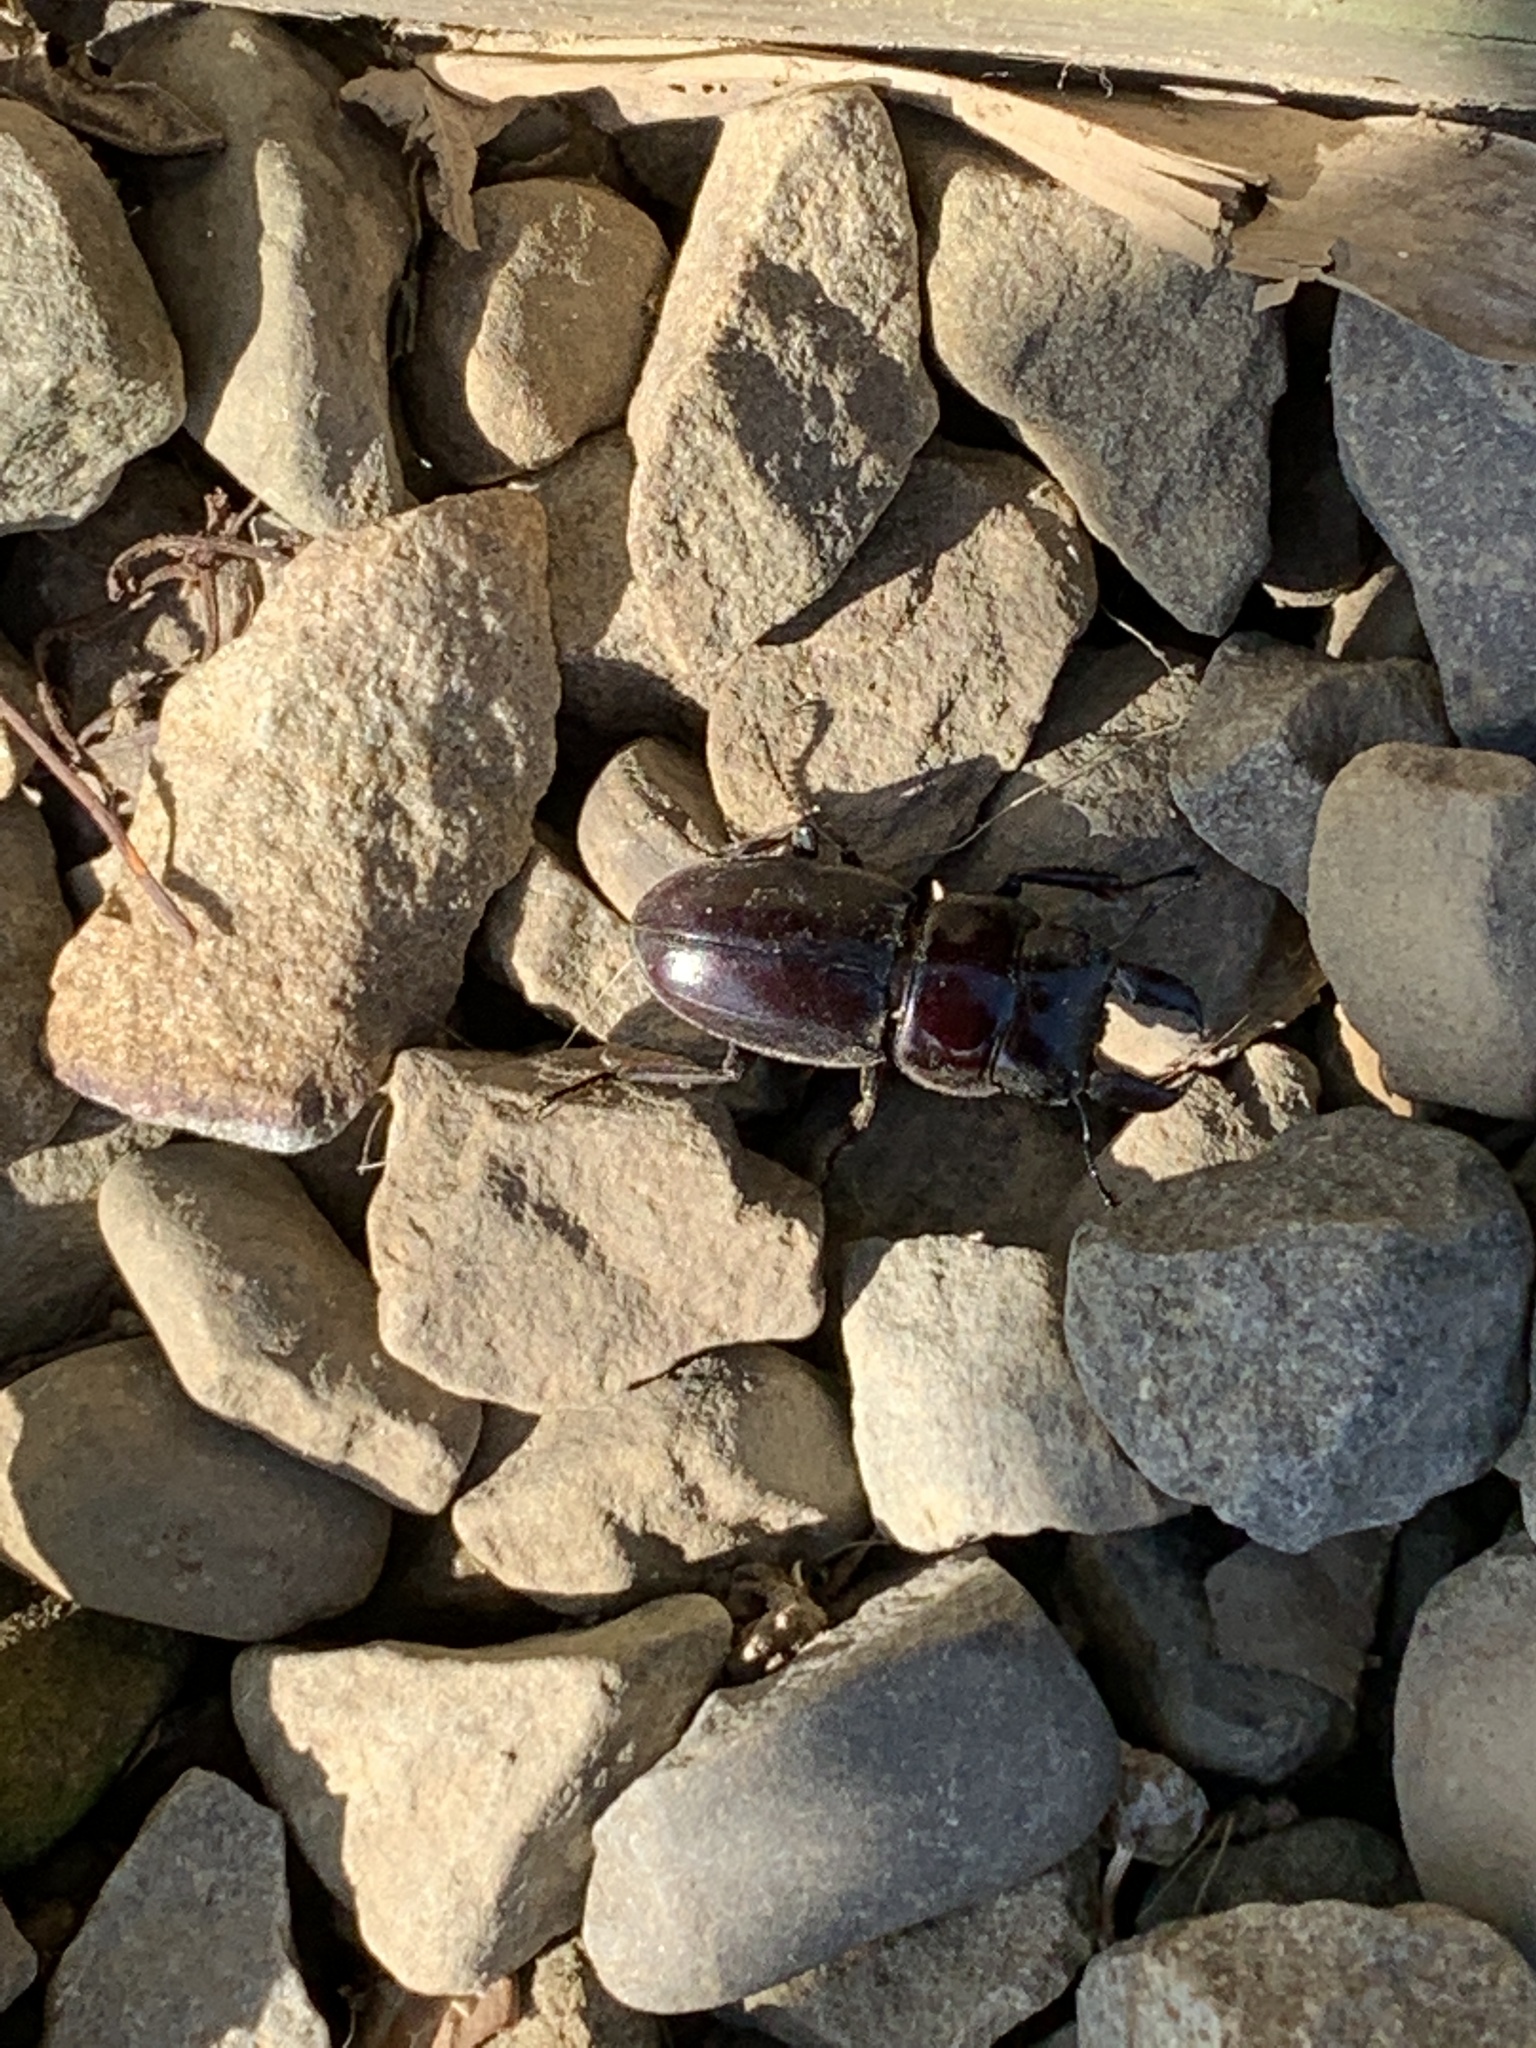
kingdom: Animalia
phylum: Arthropoda
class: Insecta
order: Coleoptera
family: Lucanidae
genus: Serrognathus
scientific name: Serrognathus titanus
